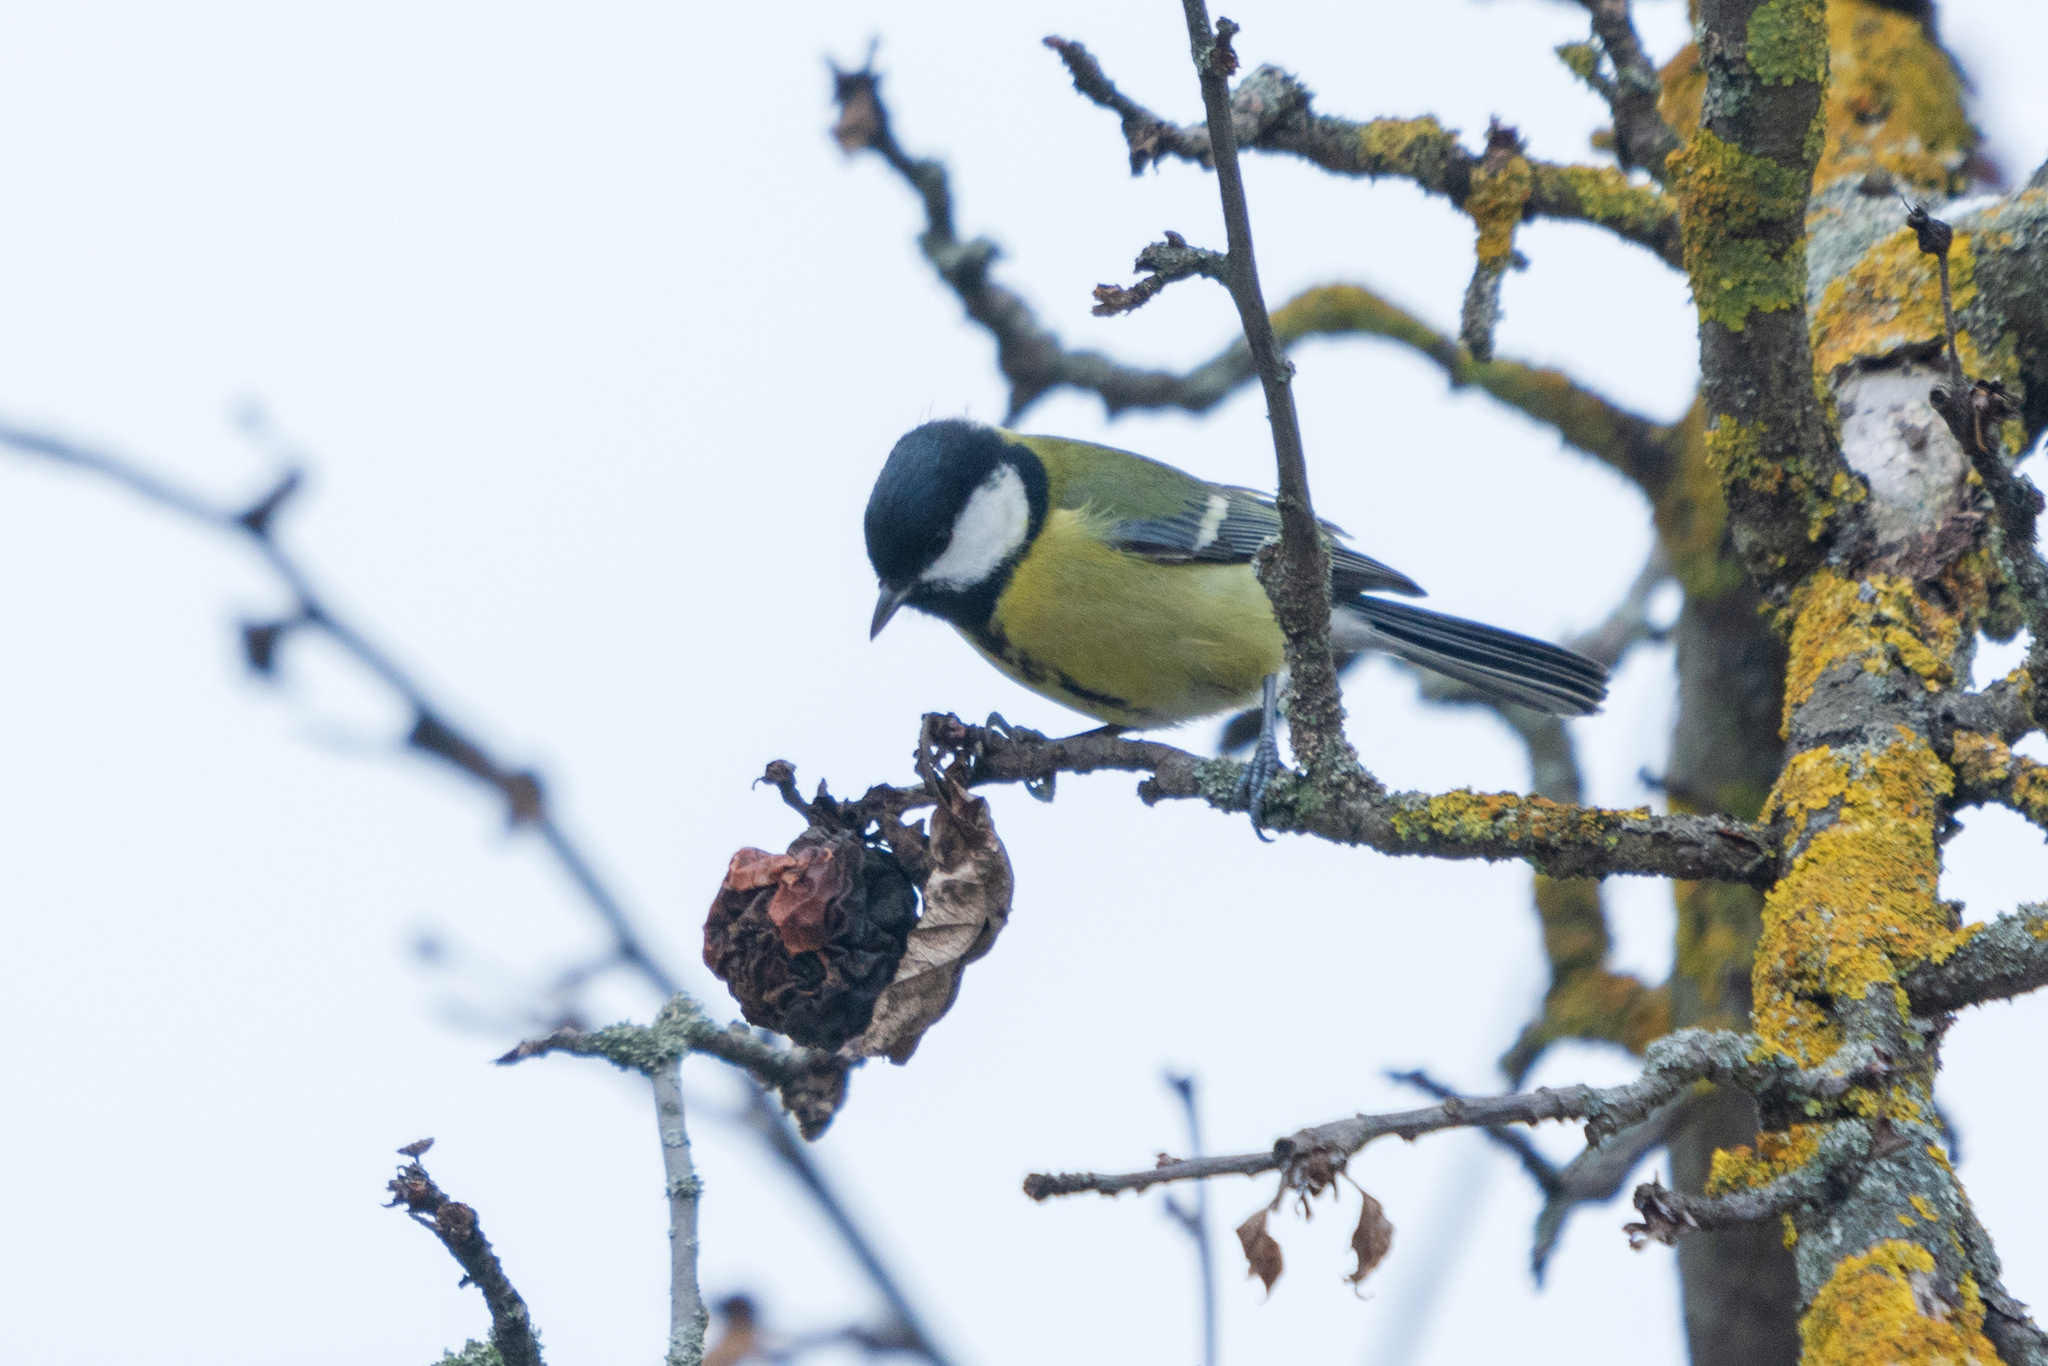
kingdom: Animalia
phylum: Chordata
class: Aves
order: Passeriformes
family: Paridae
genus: Parus
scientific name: Parus major
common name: Great tit
